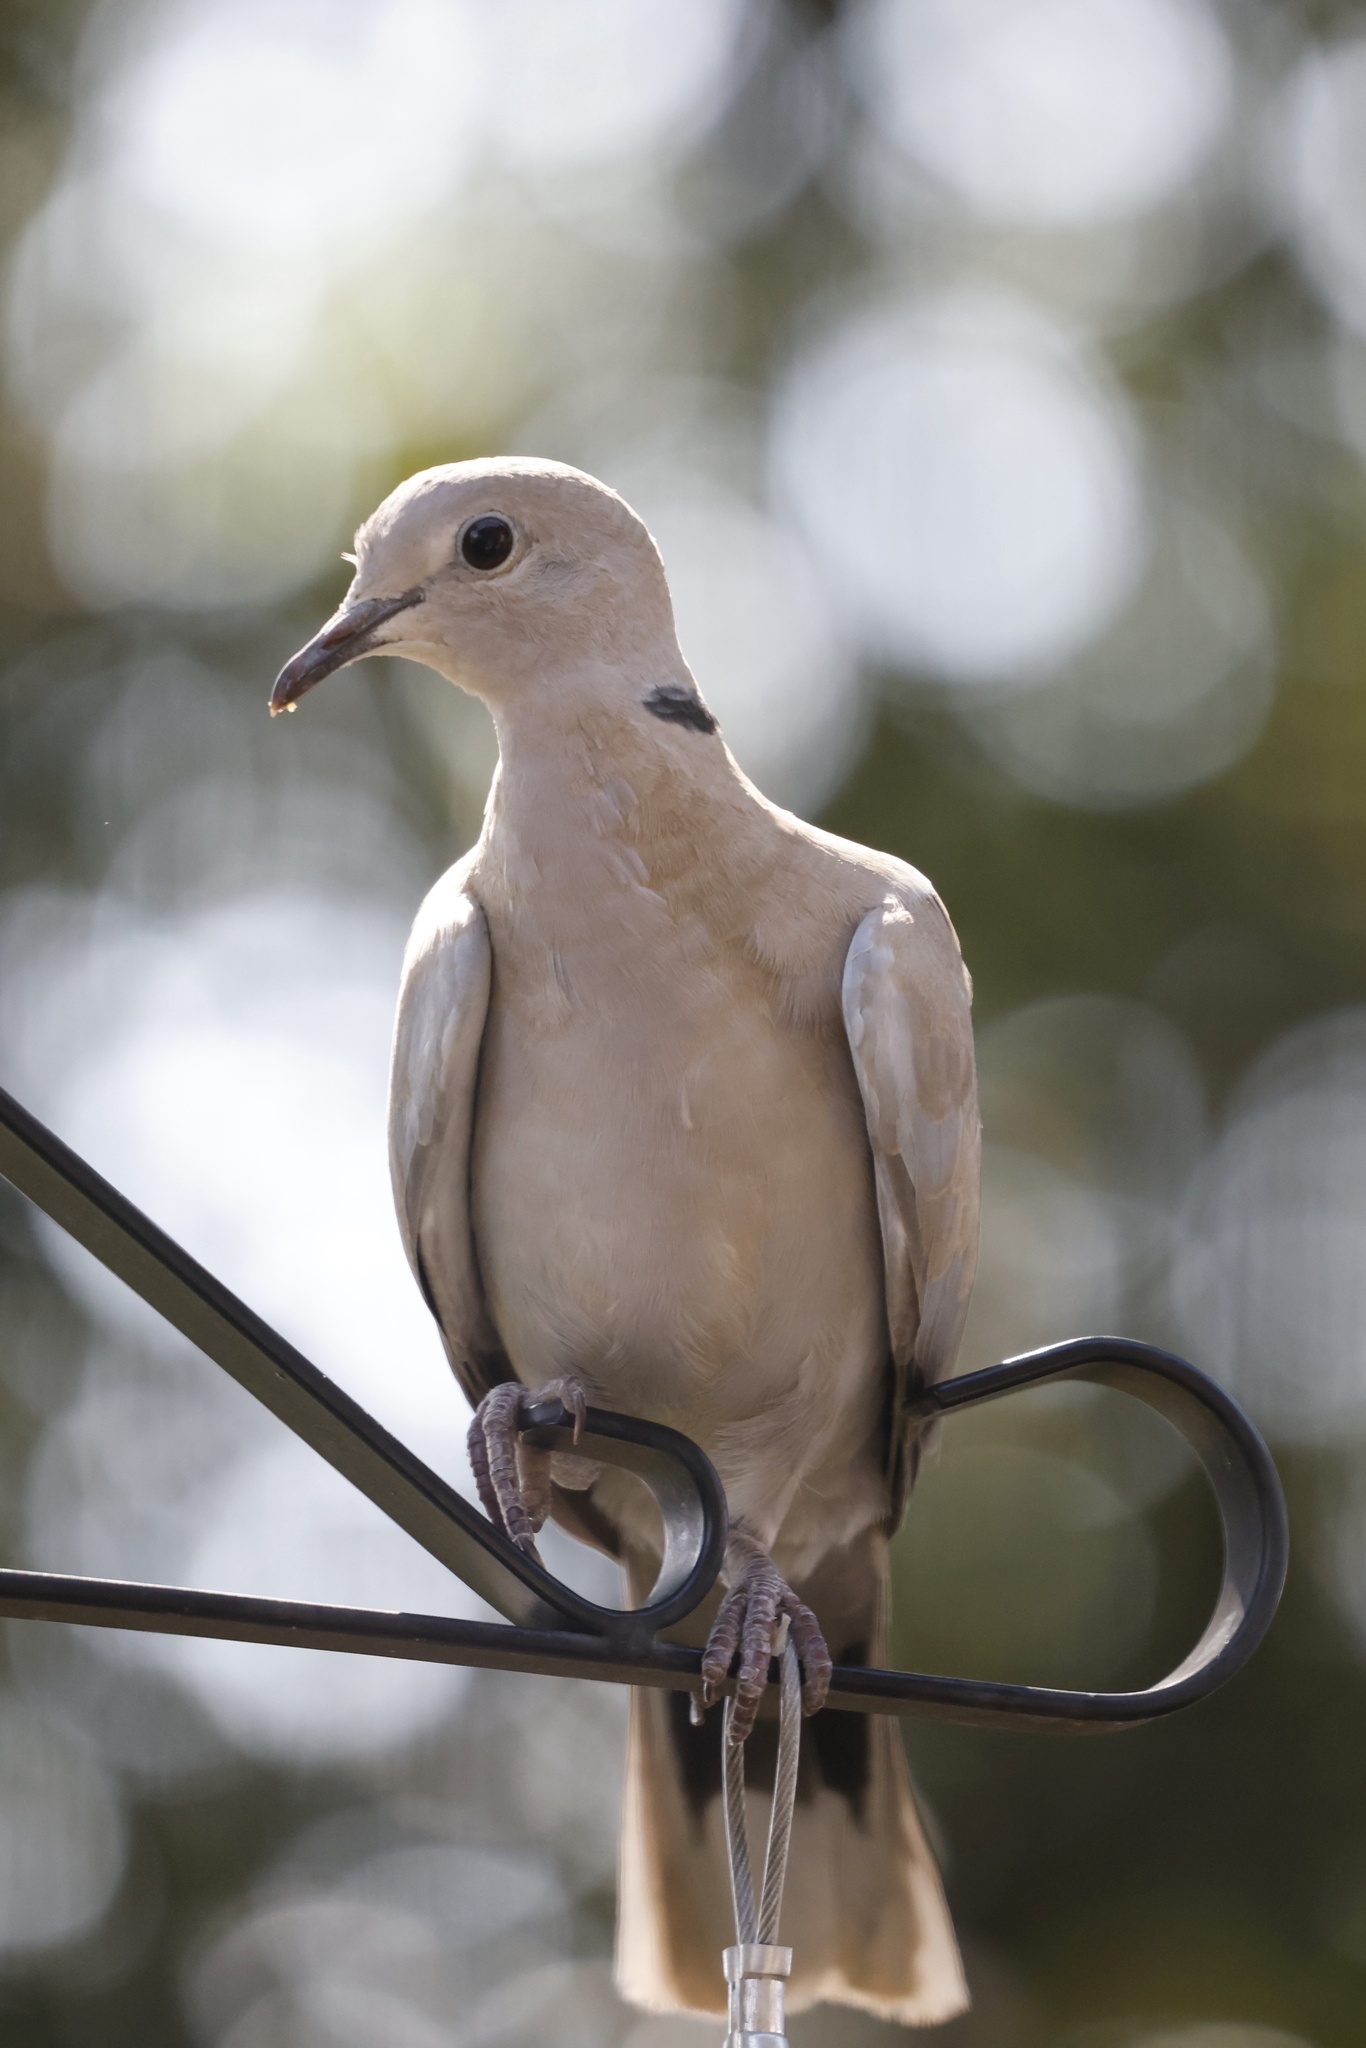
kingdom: Animalia
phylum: Chordata
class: Aves
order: Columbiformes
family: Columbidae
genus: Streptopelia
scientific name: Streptopelia decaocto
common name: Eurasian collared dove
